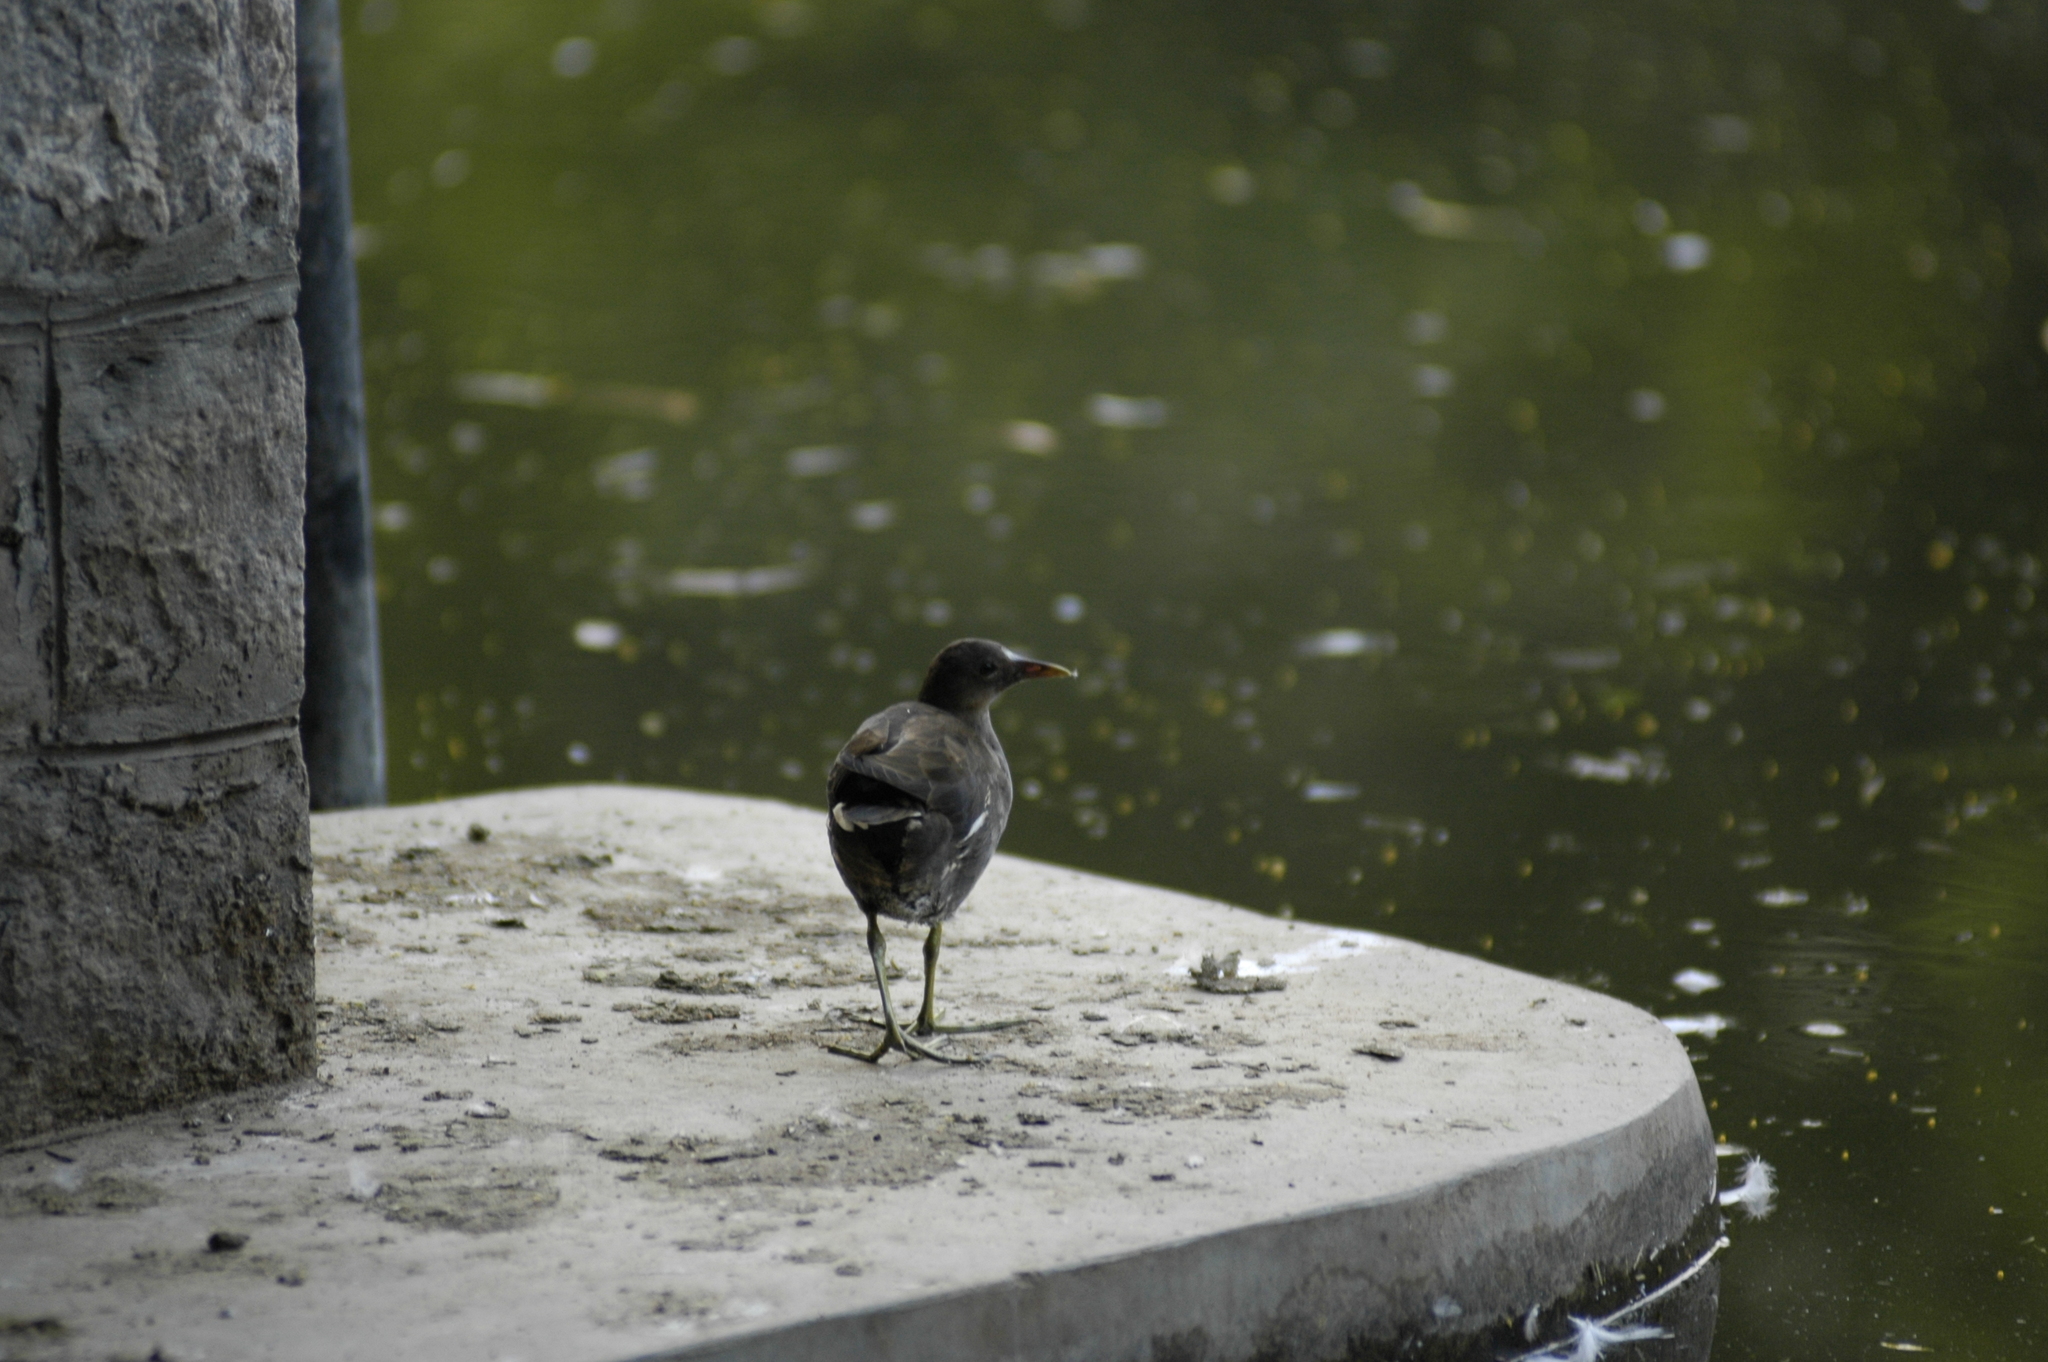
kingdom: Animalia
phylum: Chordata
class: Aves
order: Gruiformes
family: Rallidae
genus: Gallinula
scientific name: Gallinula chloropus
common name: Common moorhen
